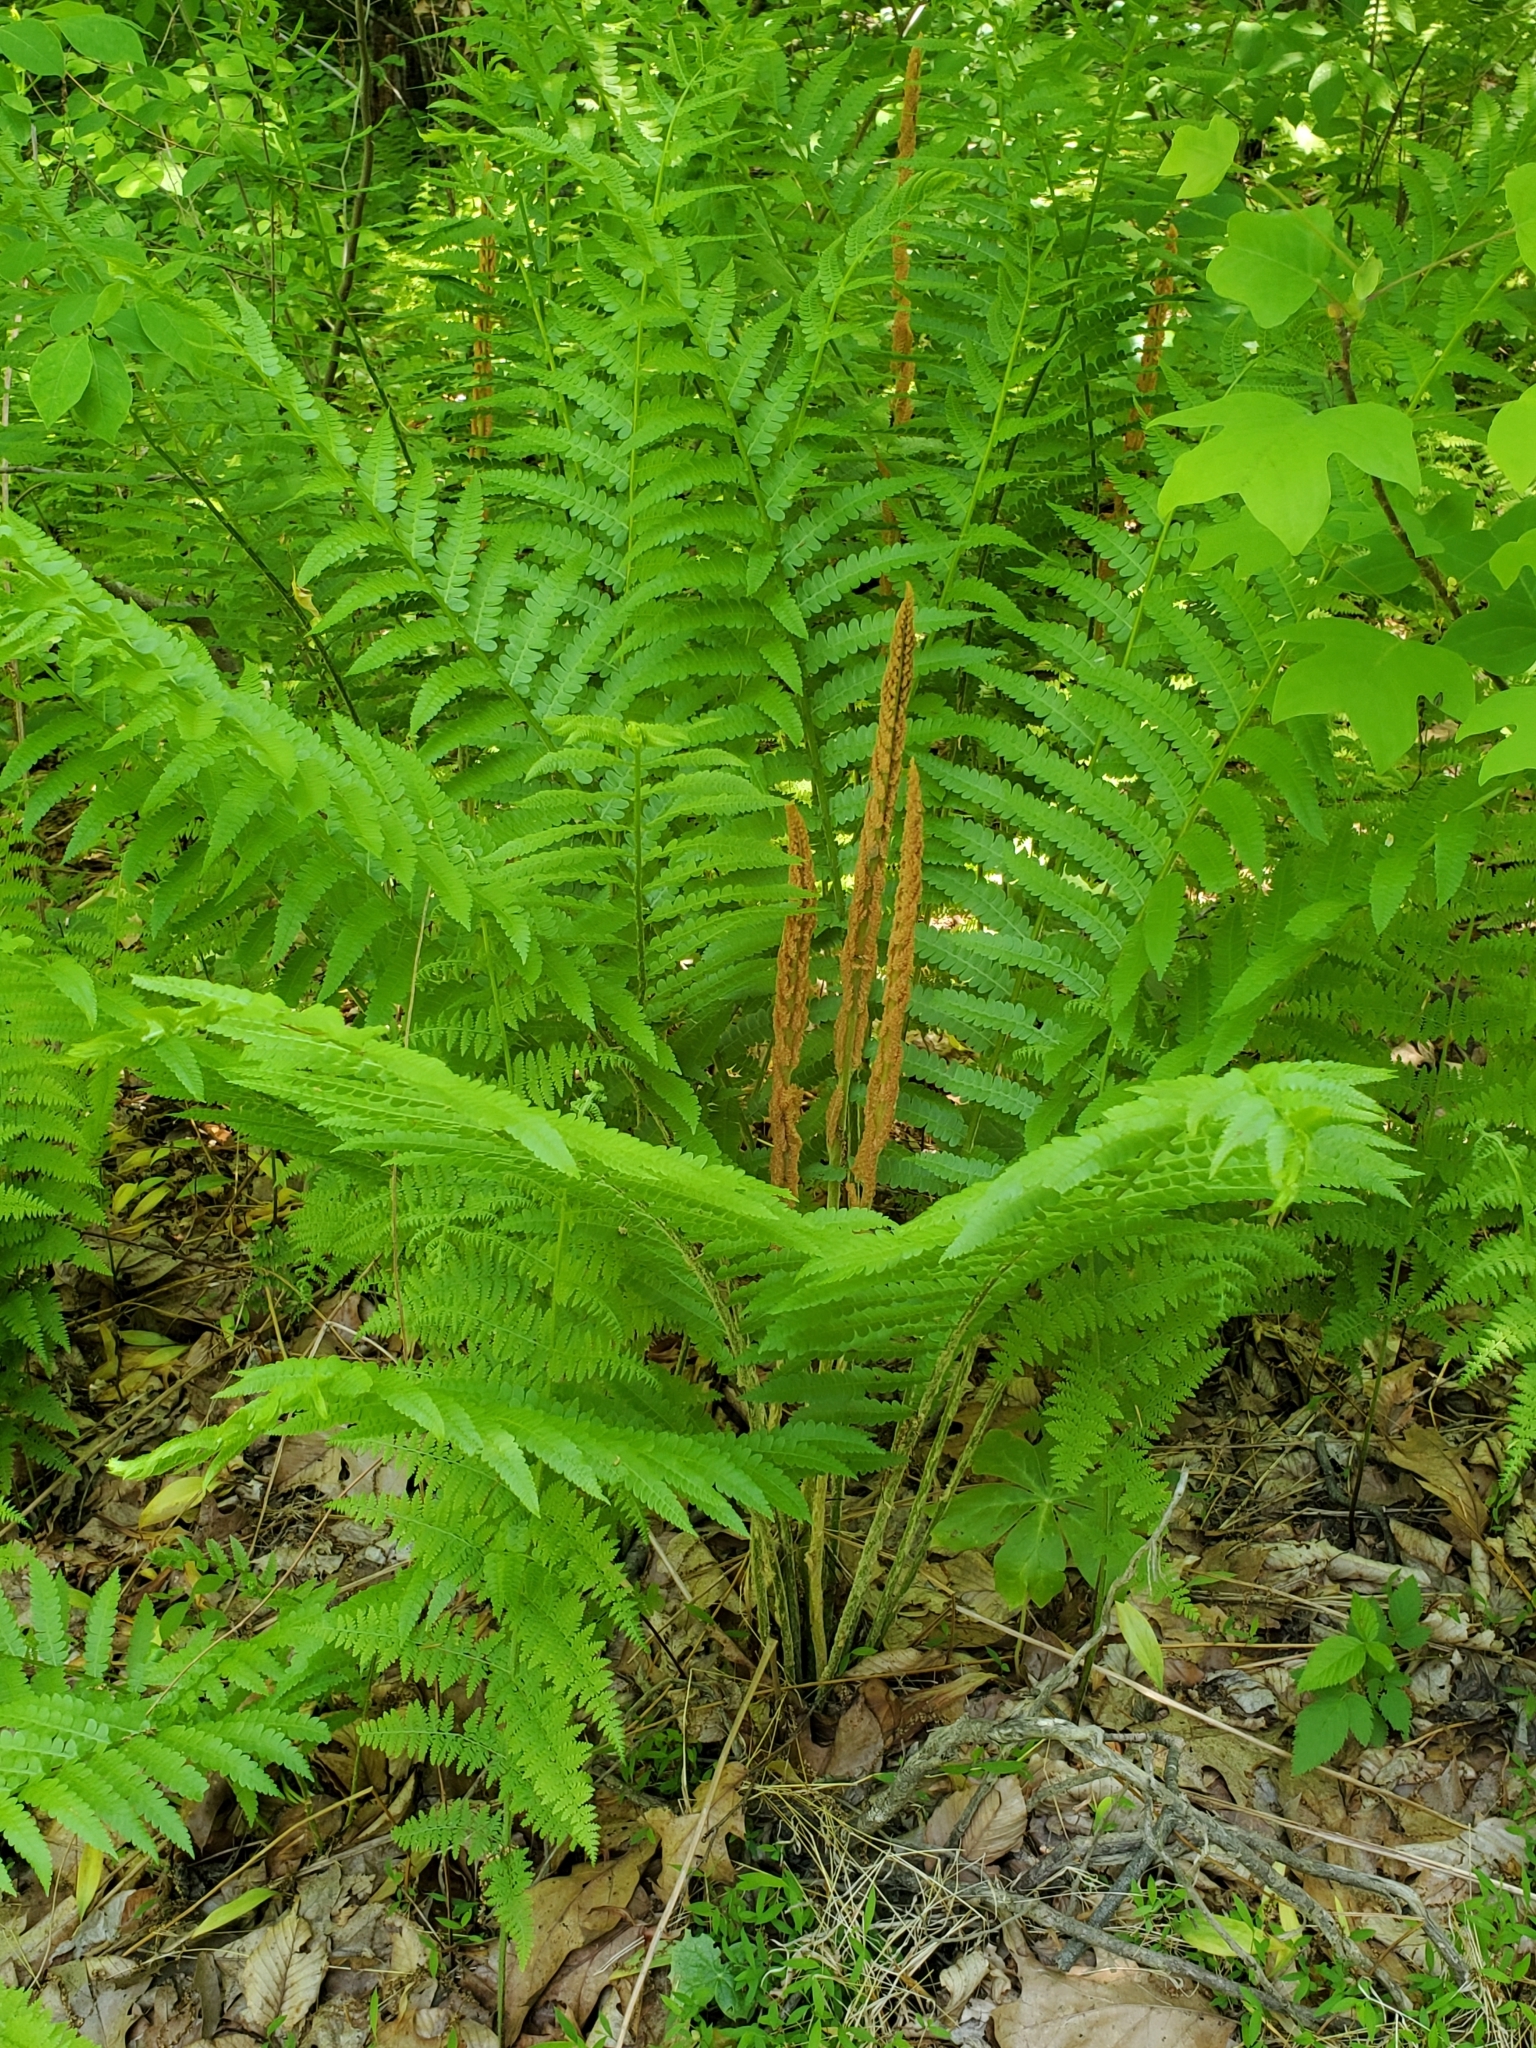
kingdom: Plantae
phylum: Tracheophyta
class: Polypodiopsida
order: Osmundales
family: Osmundaceae
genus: Osmundastrum
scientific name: Osmundastrum cinnamomeum
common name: Cinnamon fern
